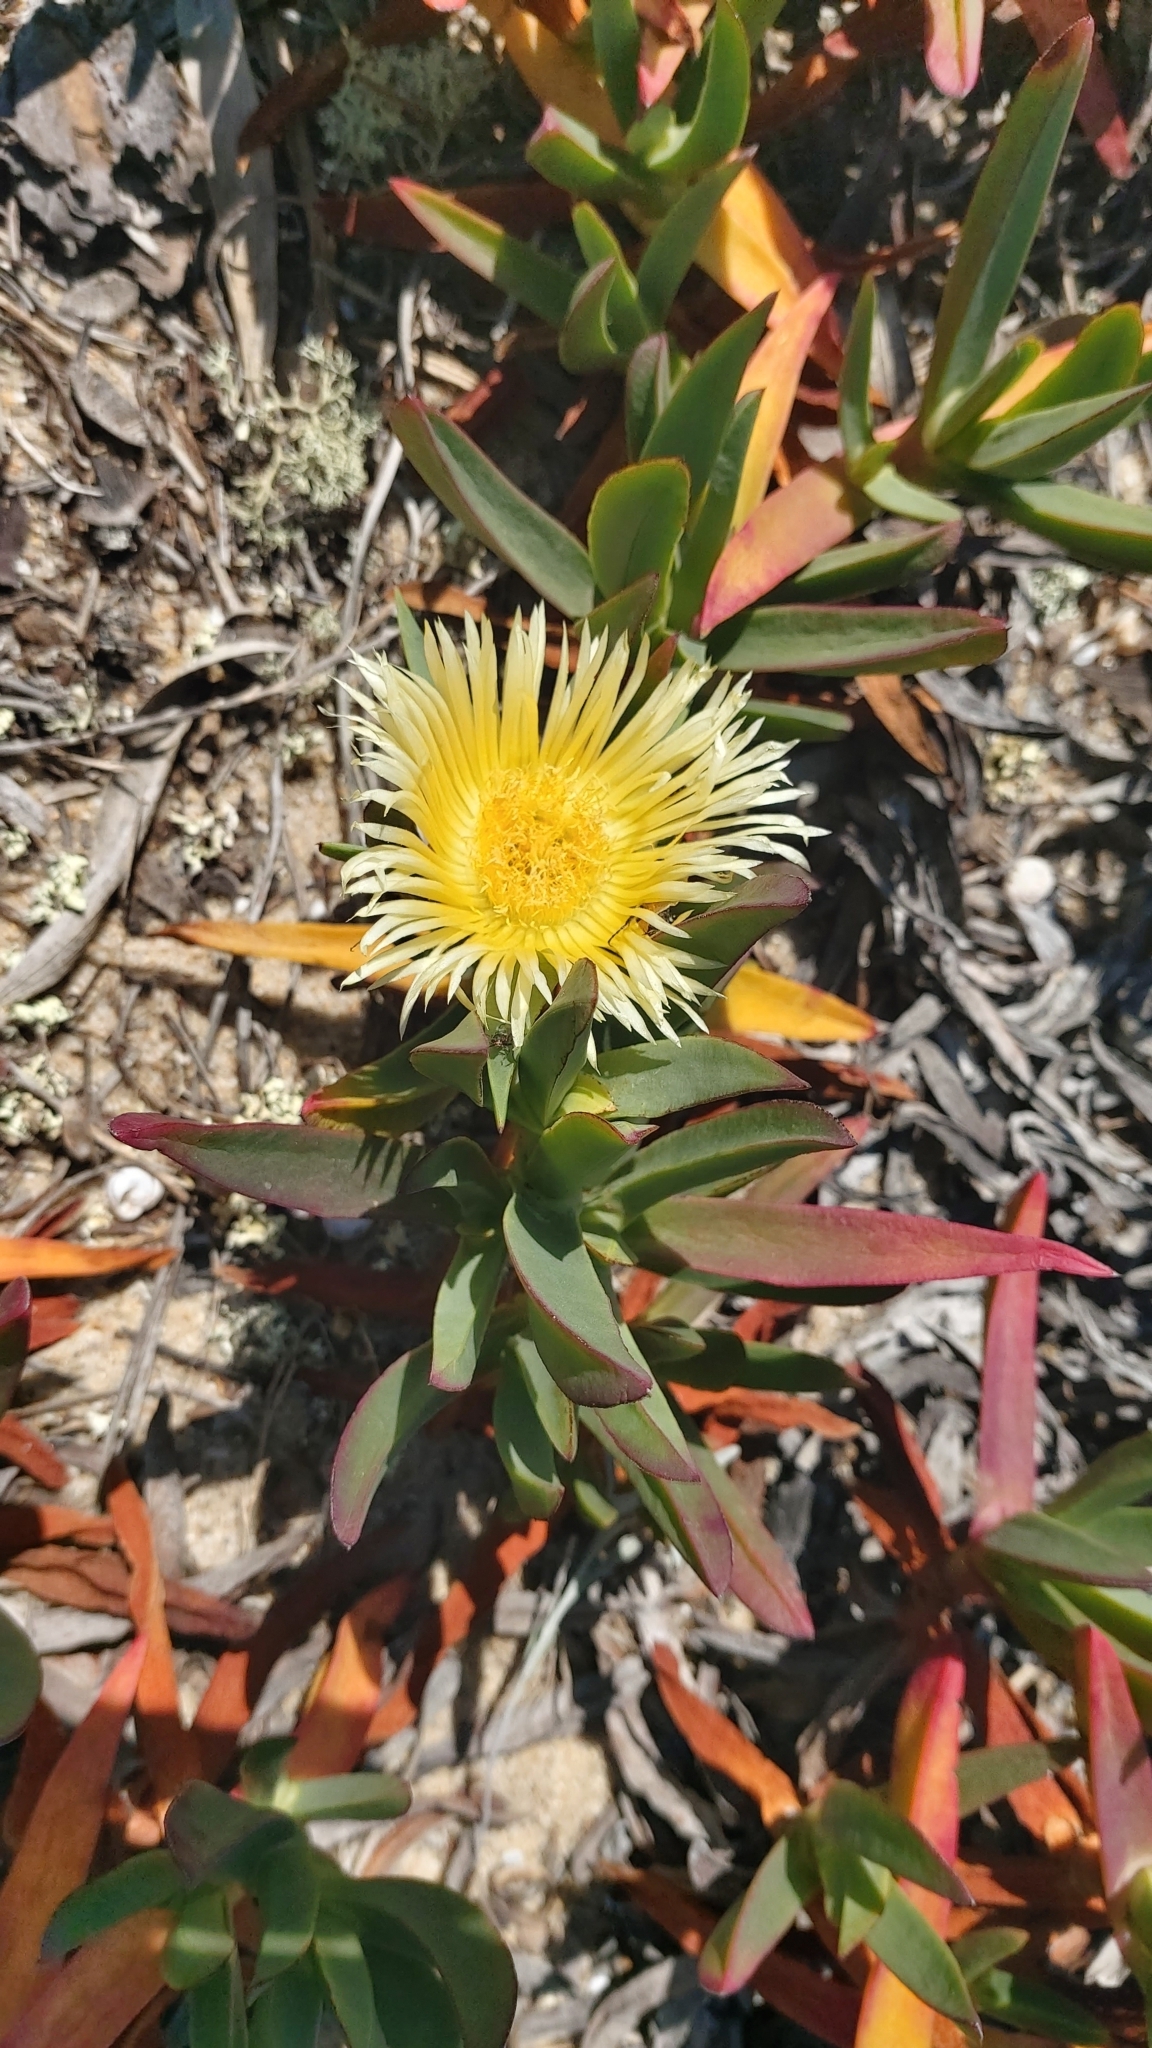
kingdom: Plantae
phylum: Tracheophyta
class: Magnoliopsida
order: Caryophyllales
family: Aizoaceae
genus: Carpobrotus
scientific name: Carpobrotus edulis
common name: Hottentot-fig
